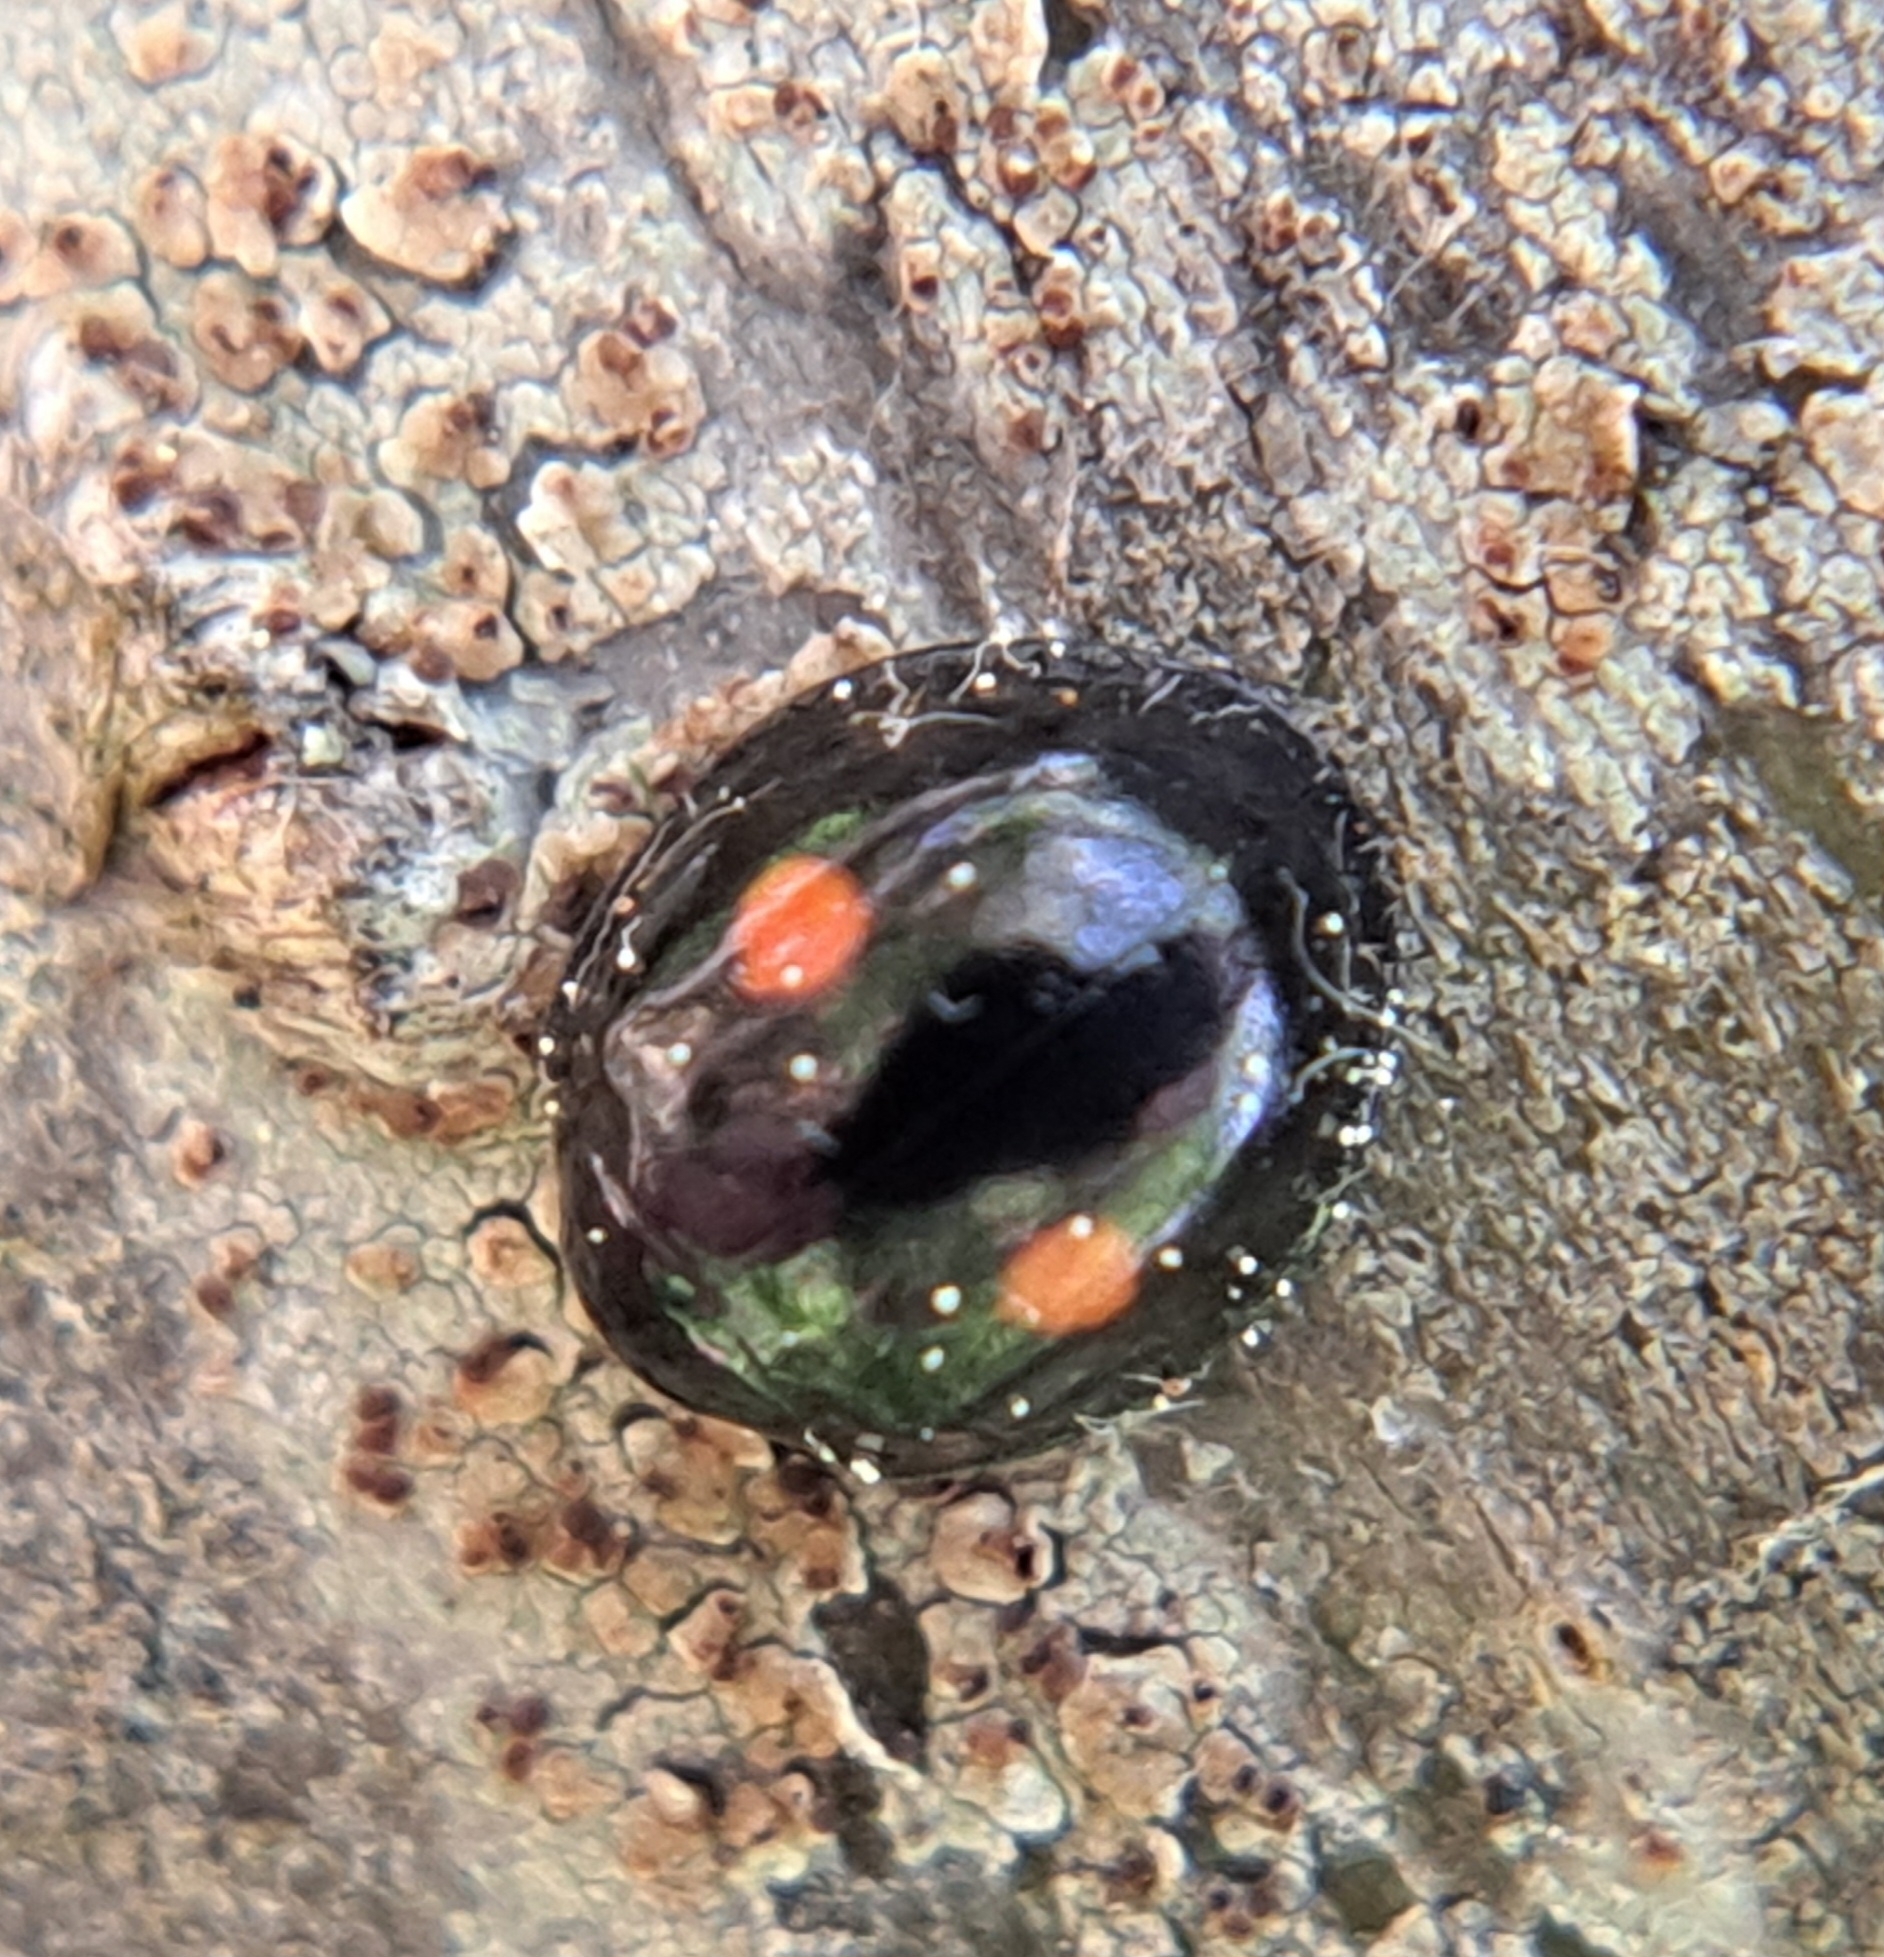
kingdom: Animalia
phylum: Arthropoda
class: Insecta
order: Coleoptera
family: Coccinellidae
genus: Chilocorus
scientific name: Chilocorus stigma
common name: Twicestabbed lady beetle
